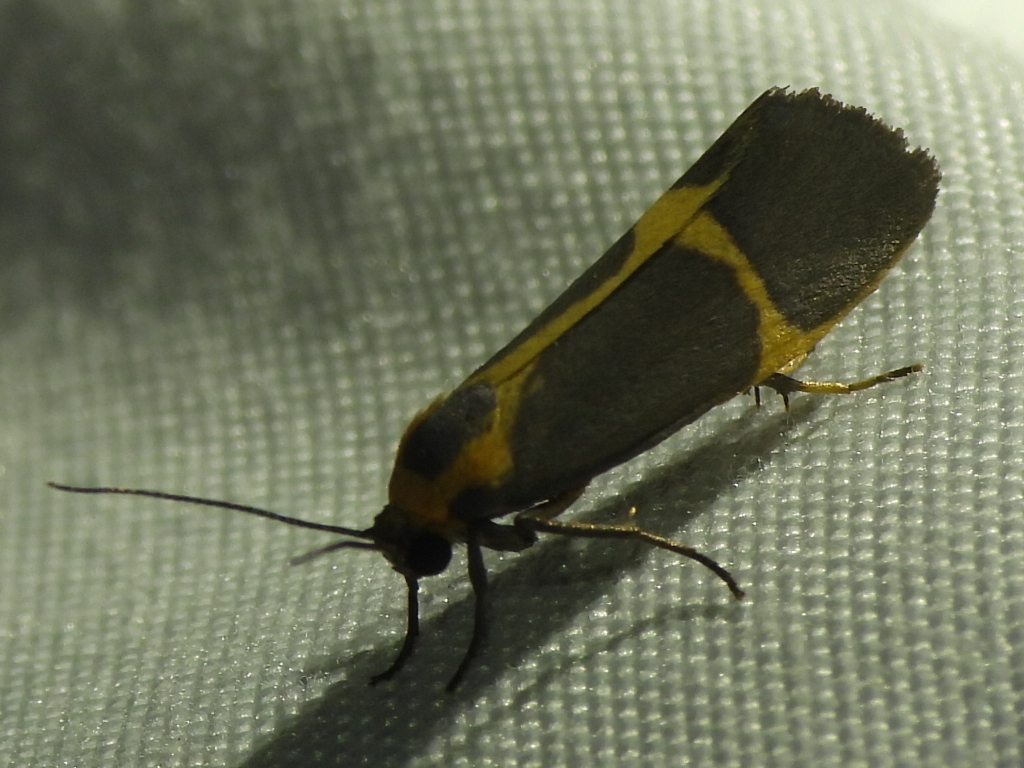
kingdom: Animalia
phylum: Arthropoda
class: Insecta
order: Lepidoptera
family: Erebidae
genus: Cisthene
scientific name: Cisthene barnesii
